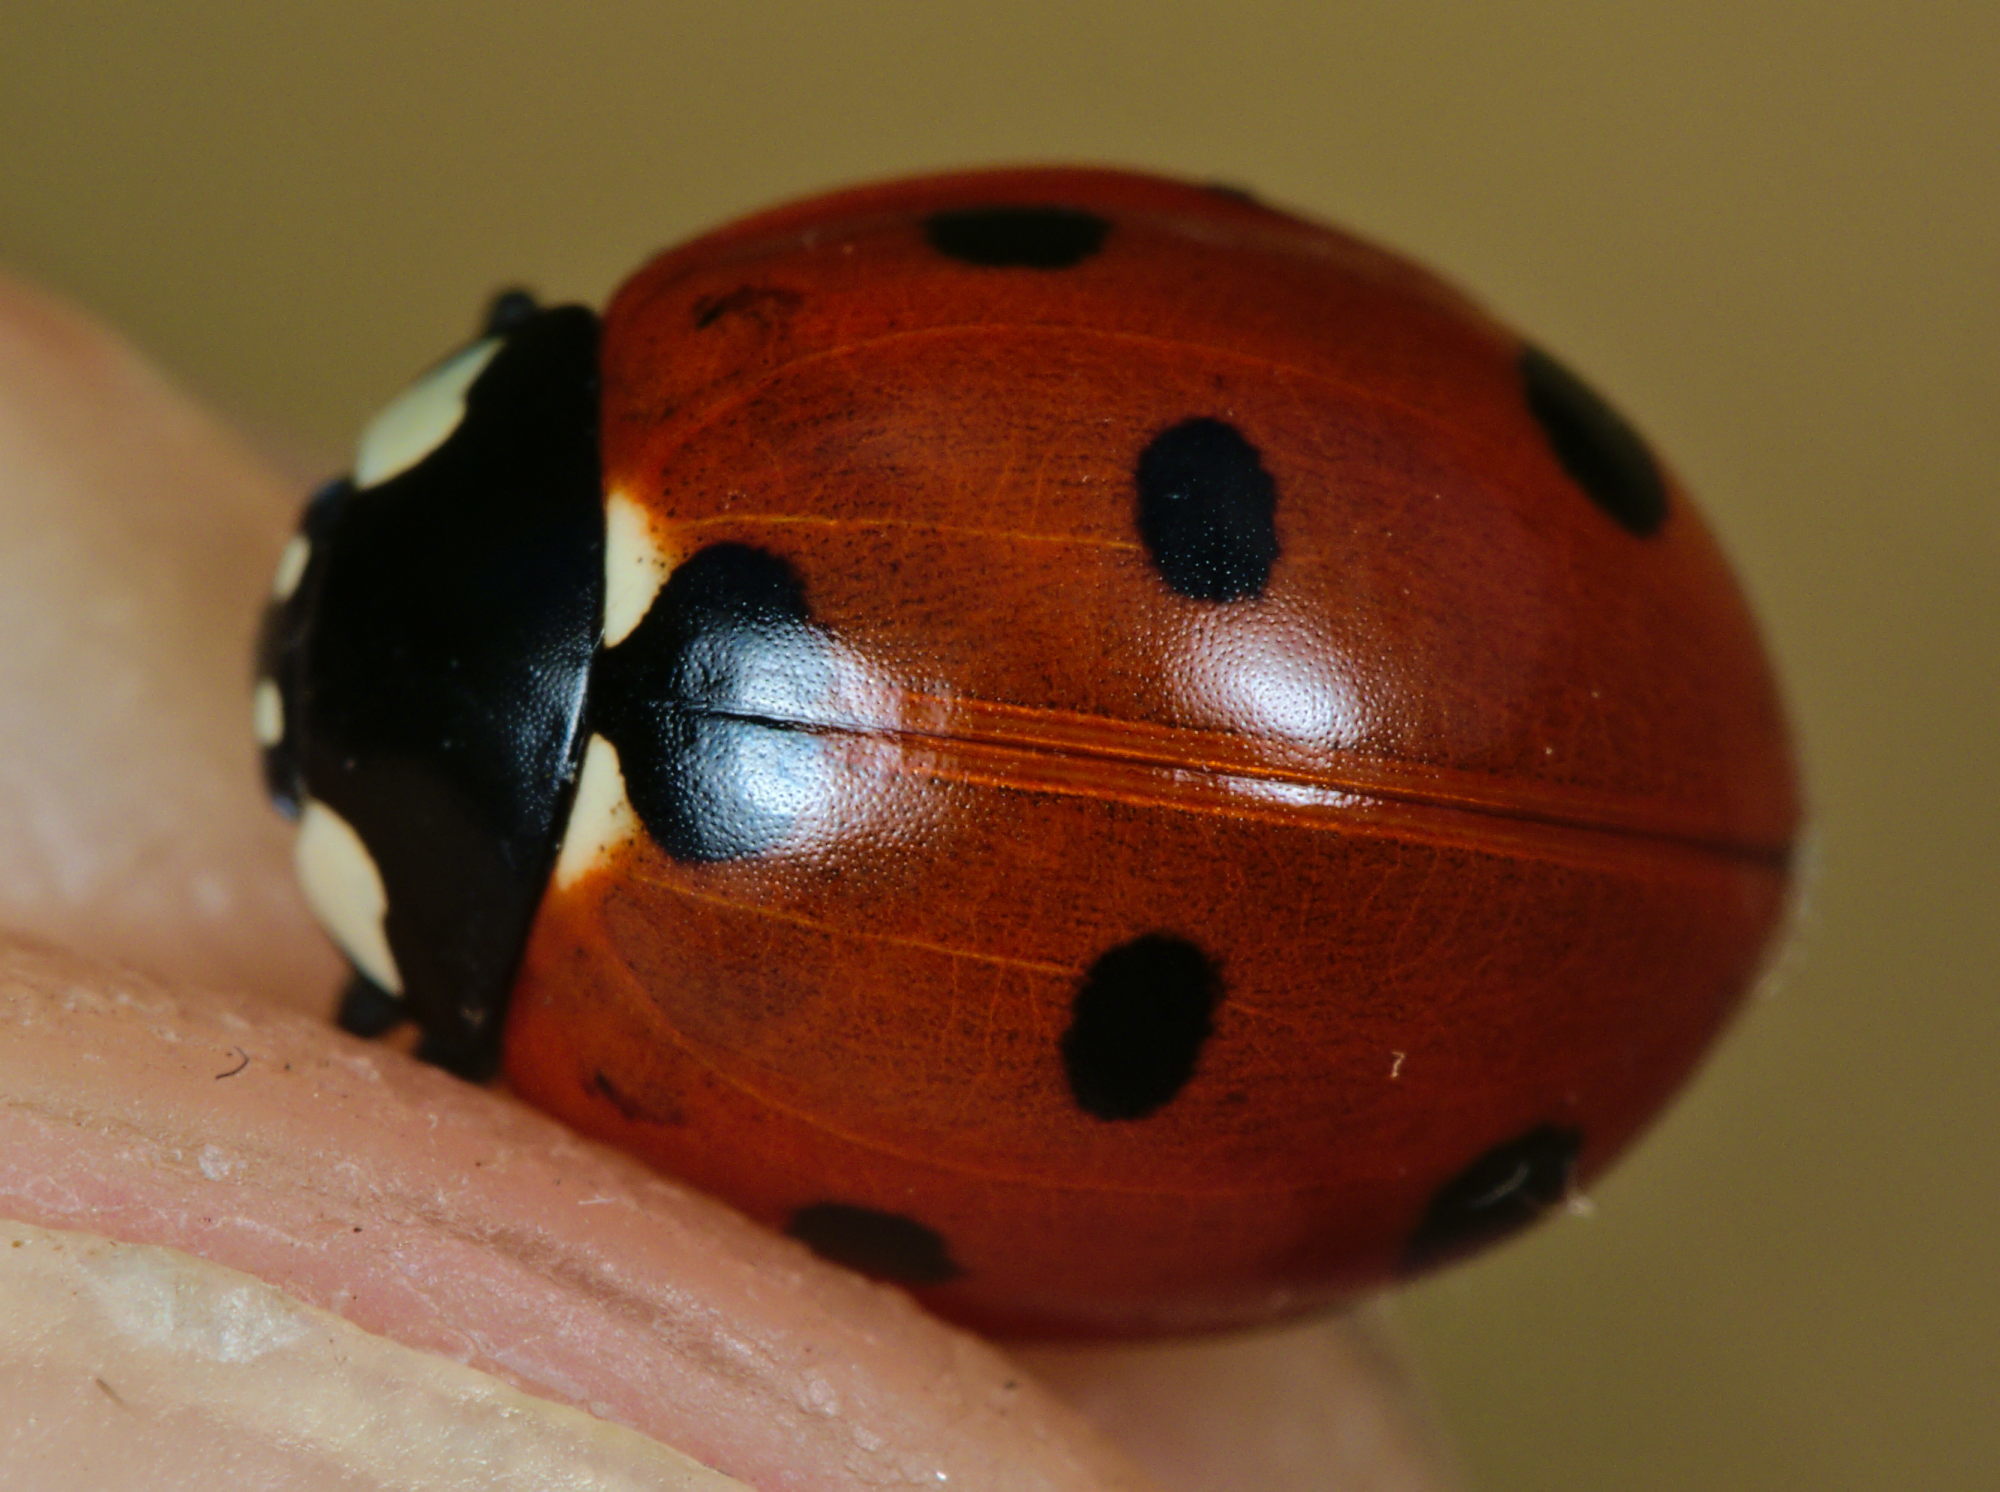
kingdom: Animalia
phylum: Arthropoda
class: Insecta
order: Coleoptera
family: Coccinellidae
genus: Coccinella
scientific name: Coccinella septempunctata
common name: Sevenspotted lady beetle
